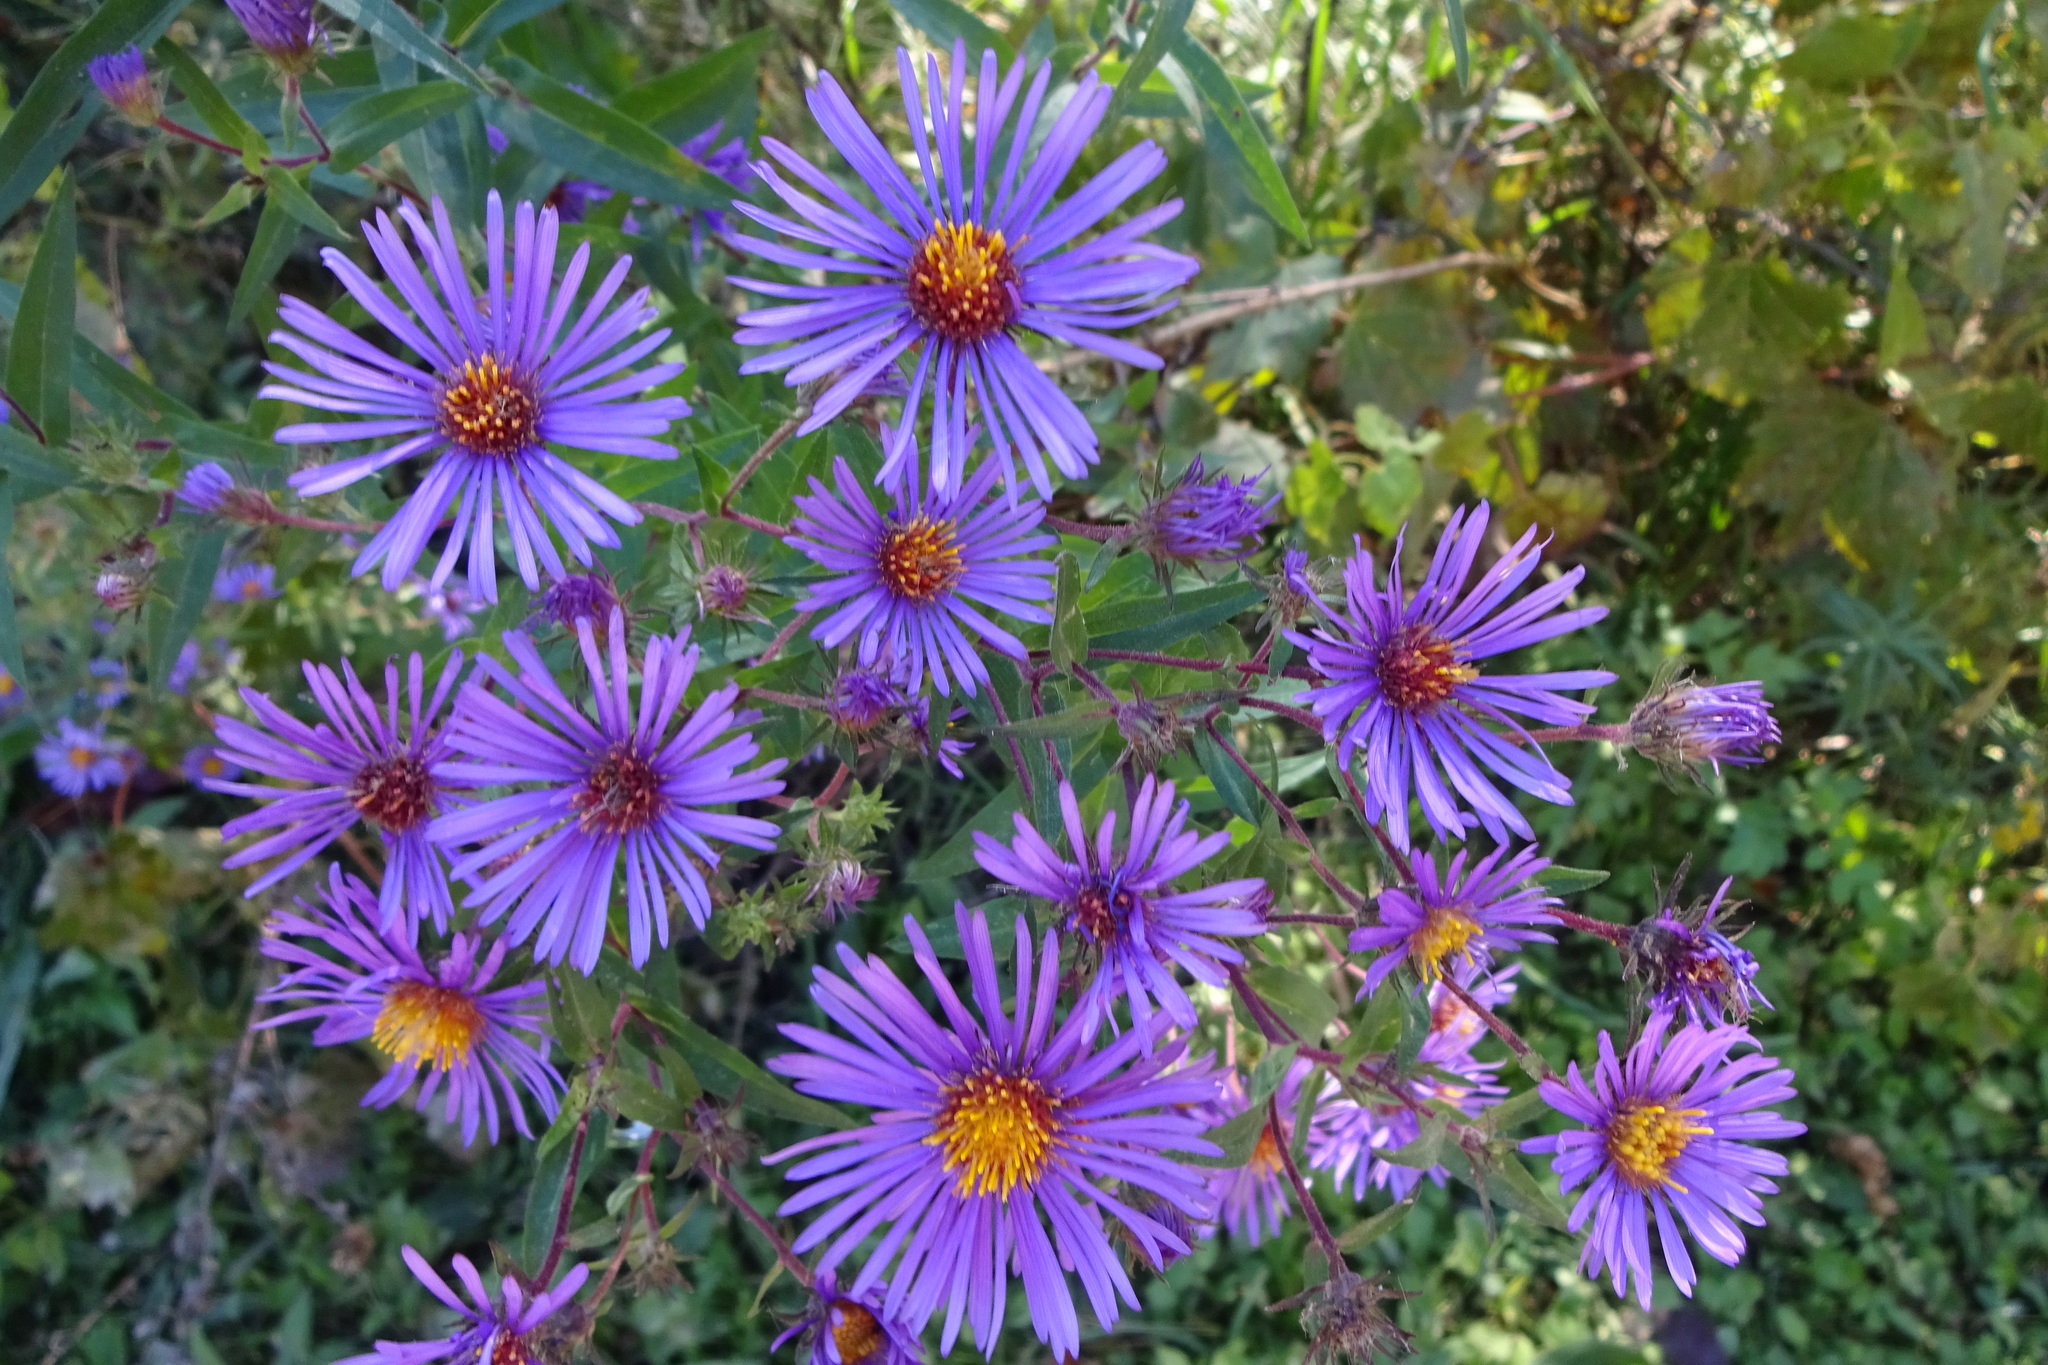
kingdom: Plantae
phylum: Tracheophyta
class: Magnoliopsida
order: Asterales
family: Asteraceae
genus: Symphyotrichum
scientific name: Symphyotrichum novae-angliae
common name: Michaelmas daisy
